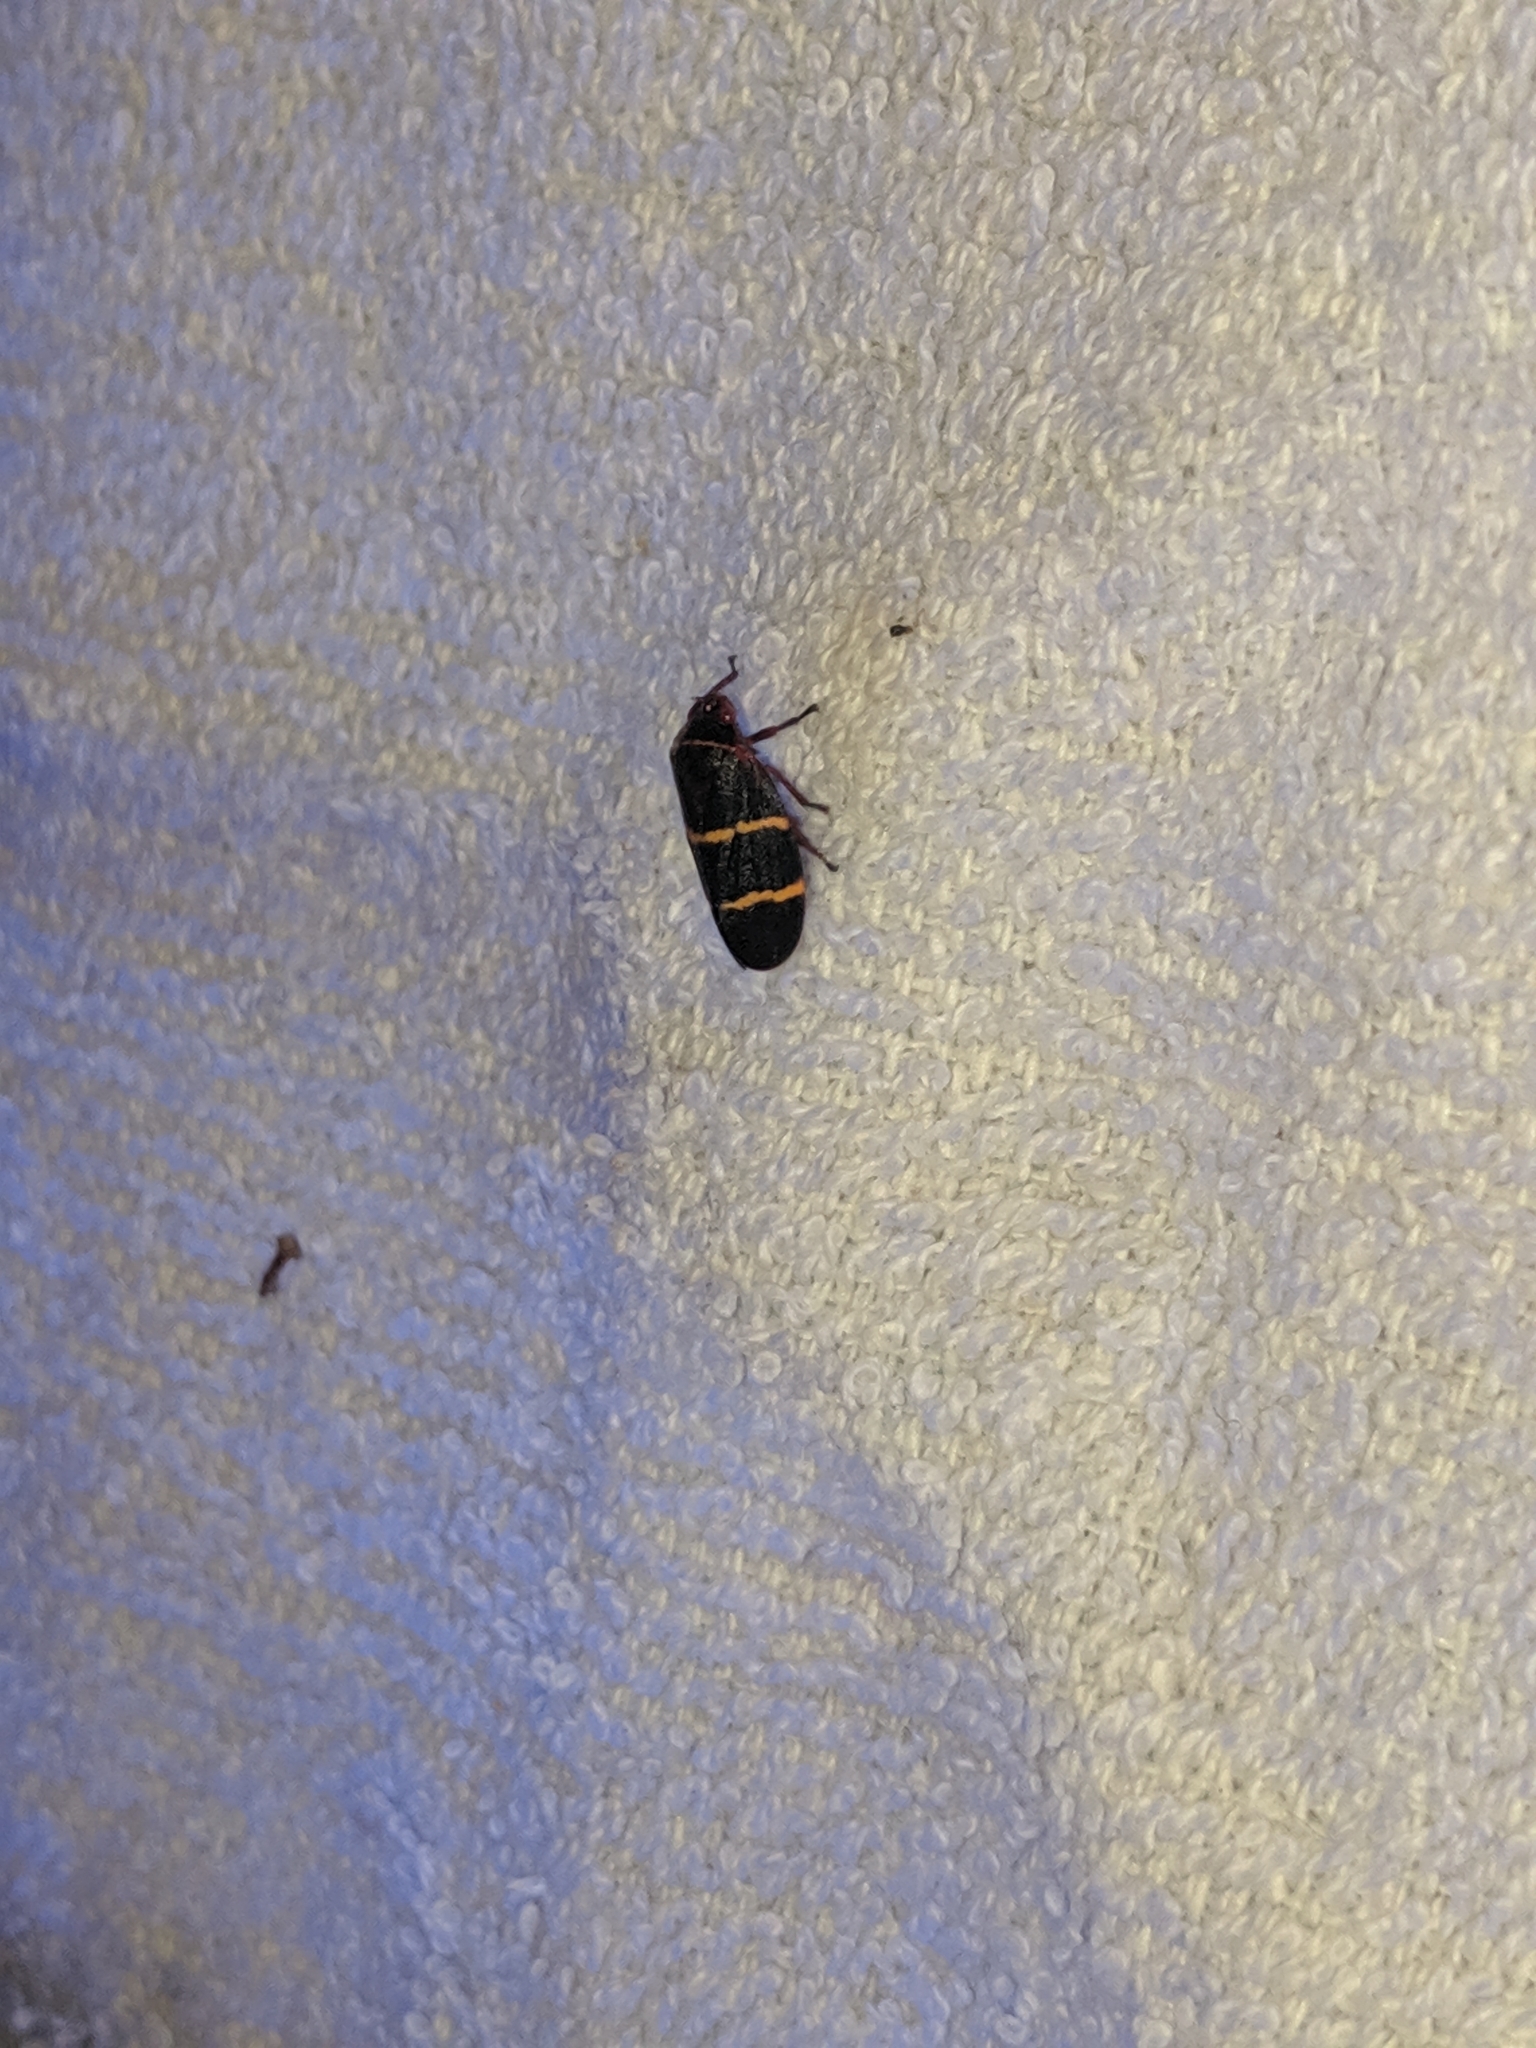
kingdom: Animalia
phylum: Arthropoda
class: Insecta
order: Hemiptera
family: Cercopidae
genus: Prosapia
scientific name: Prosapia bicincta
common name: Twolined spittlebug
